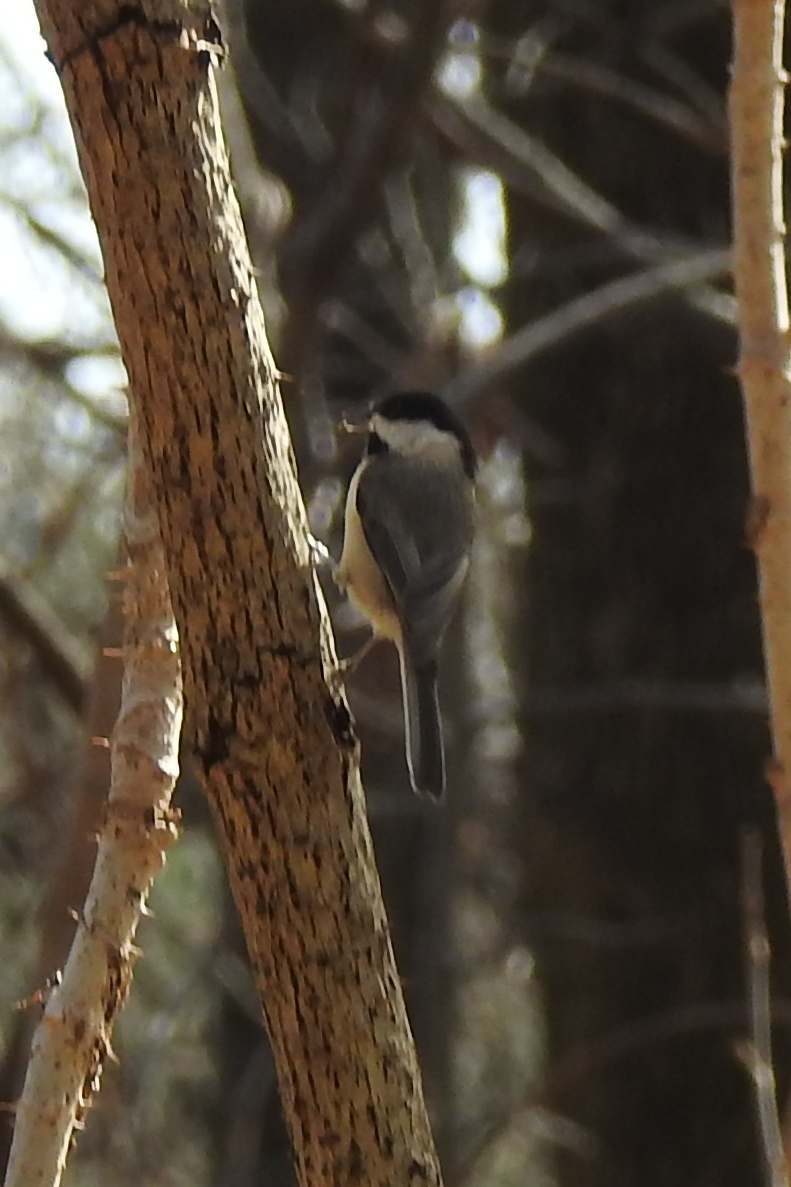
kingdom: Animalia
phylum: Chordata
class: Aves
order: Passeriformes
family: Paridae
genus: Poecile
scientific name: Poecile carolinensis
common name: Carolina chickadee
